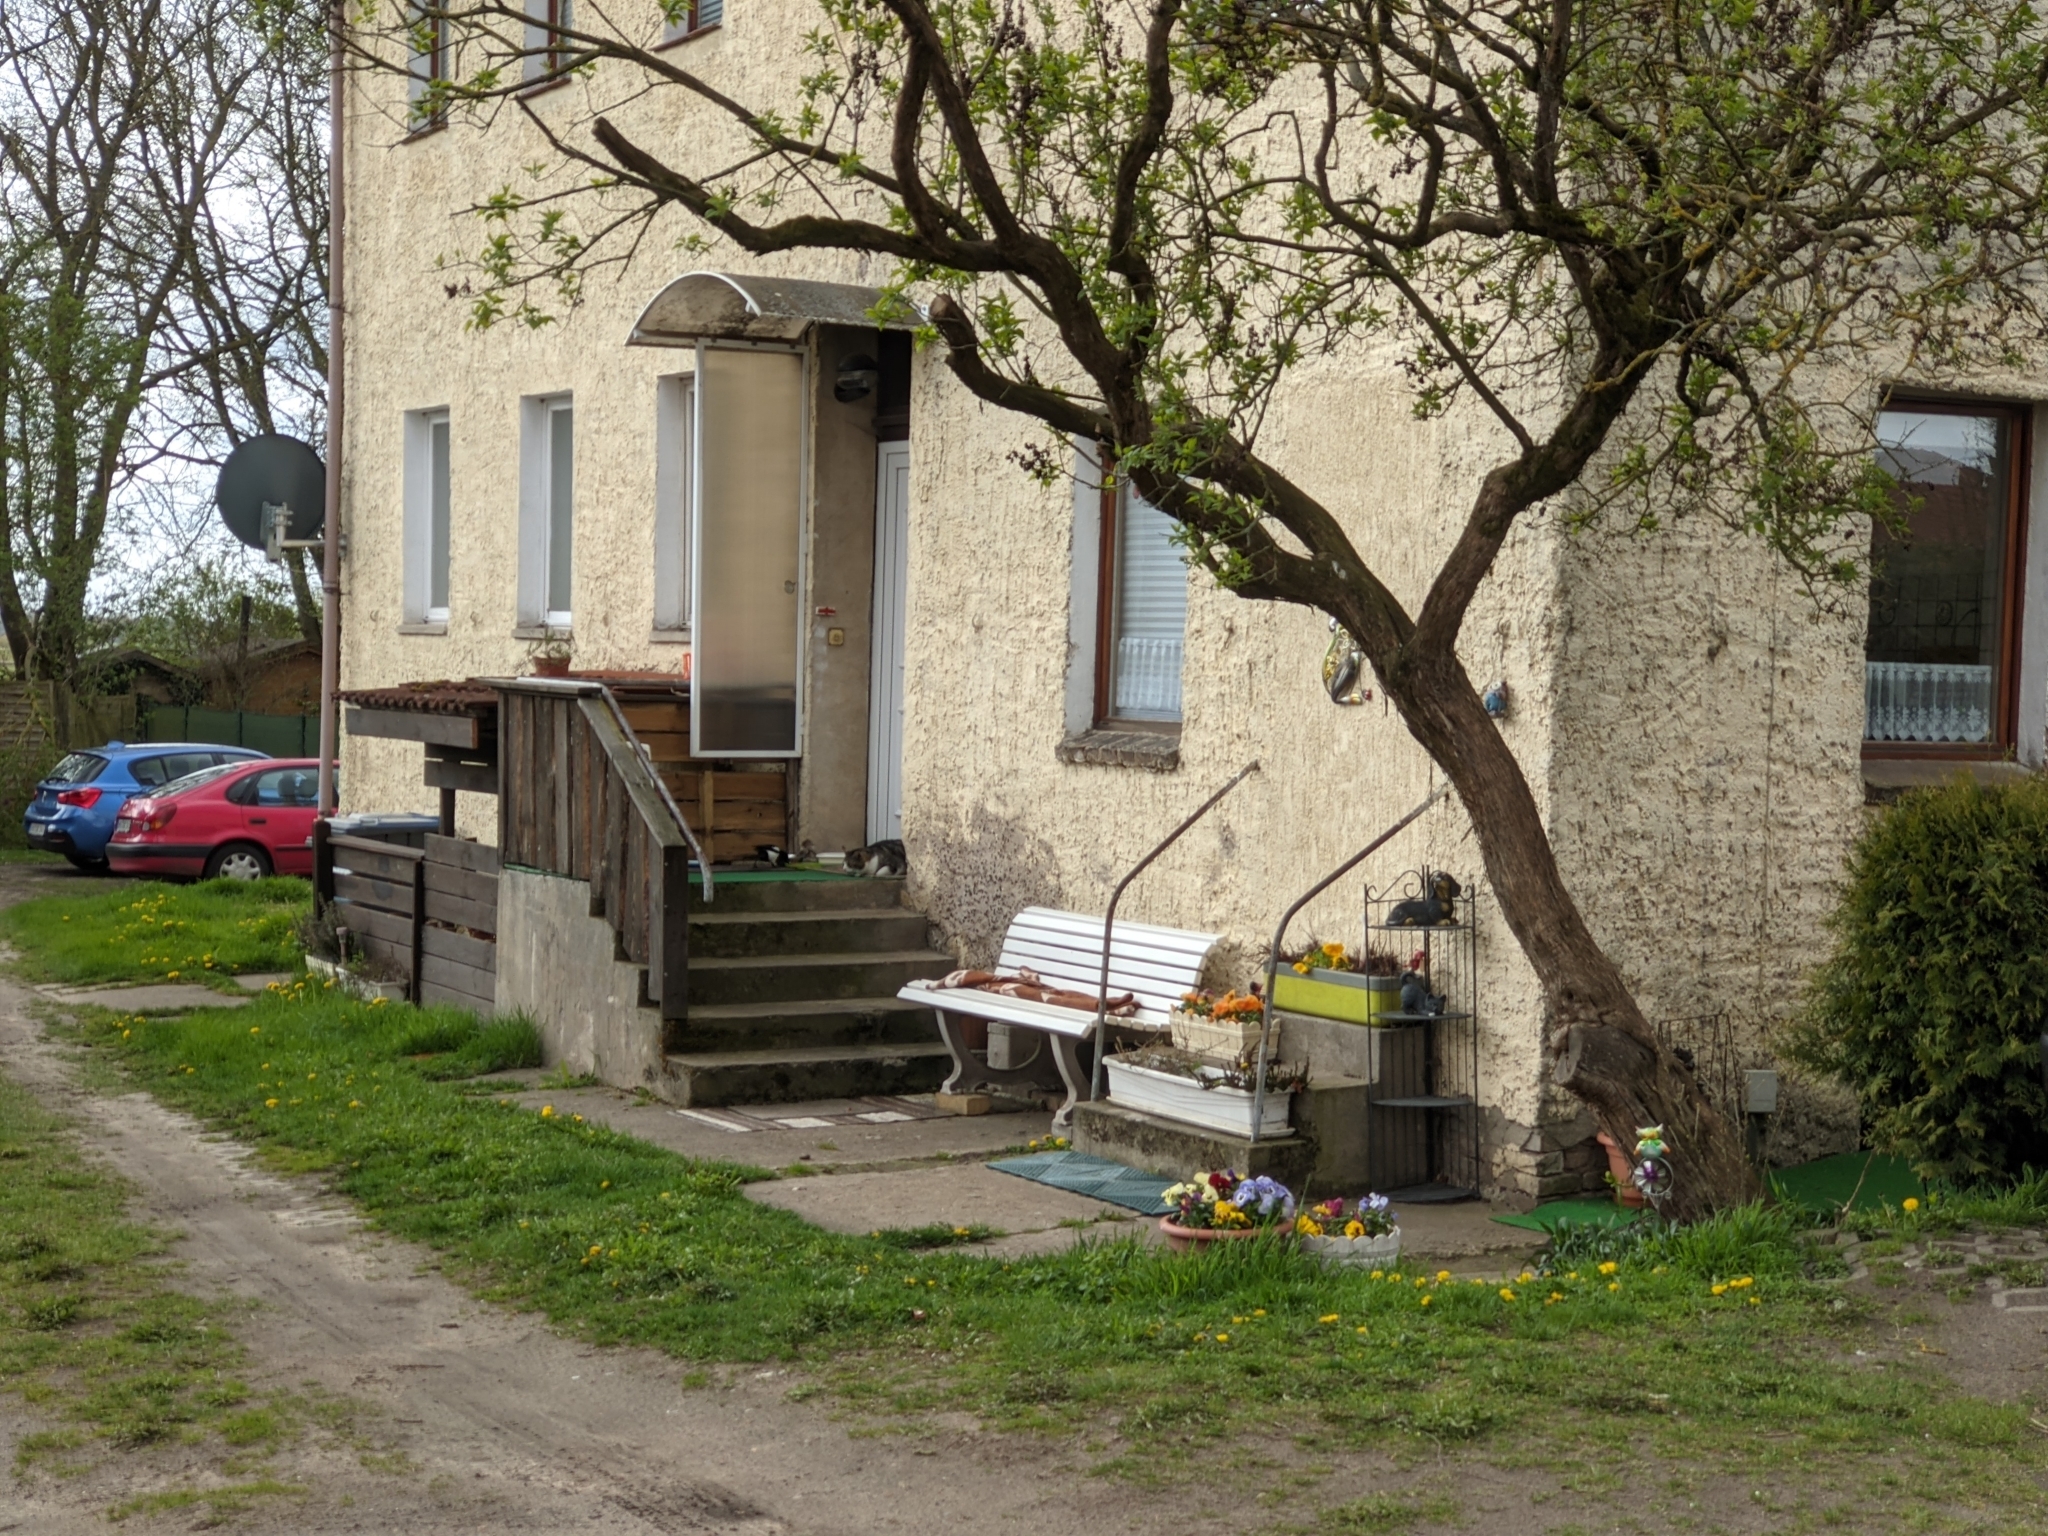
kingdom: Animalia
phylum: Chordata
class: Aves
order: Passeriformes
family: Corvidae
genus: Pica
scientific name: Pica pica
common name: Eurasian magpie
